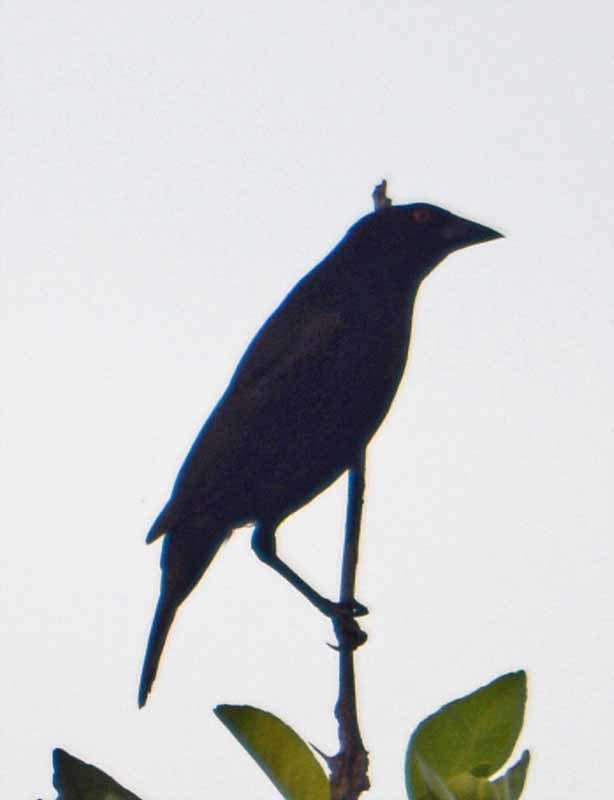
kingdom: Animalia
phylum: Chordata
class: Aves
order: Passeriformes
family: Icteridae
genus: Molothrus
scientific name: Molothrus aeneus
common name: Bronzed cowbird
